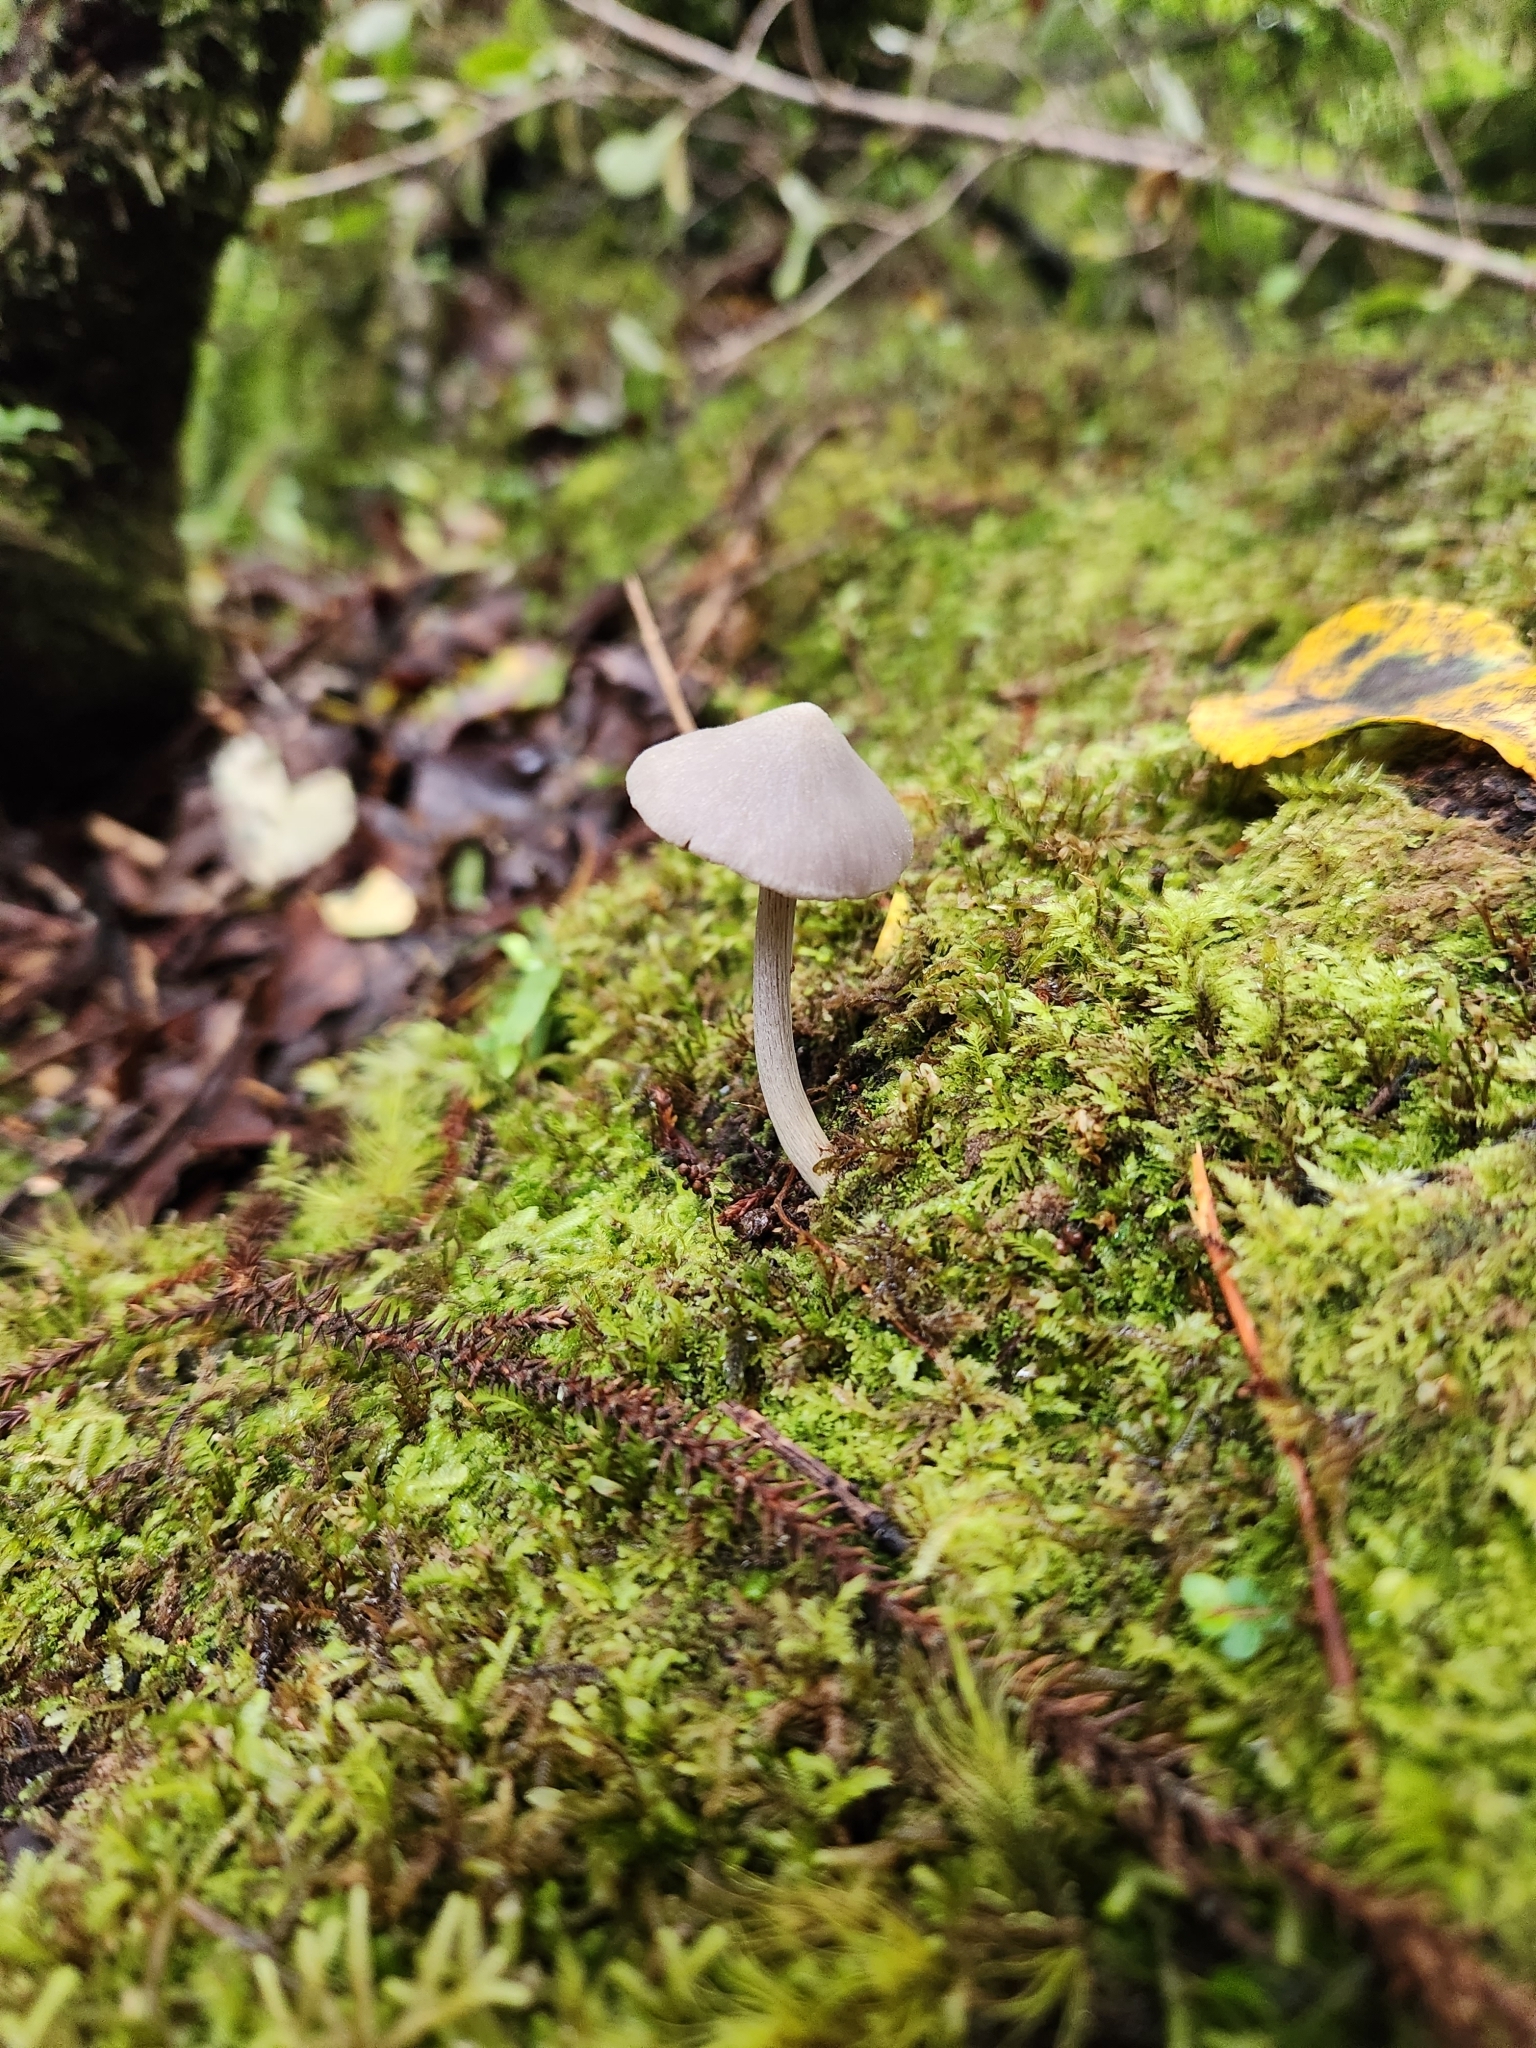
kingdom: Fungi
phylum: Basidiomycota
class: Agaricomycetes
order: Agaricales
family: Entolomataceae
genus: Entoloma
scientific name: Entoloma canoconicum
